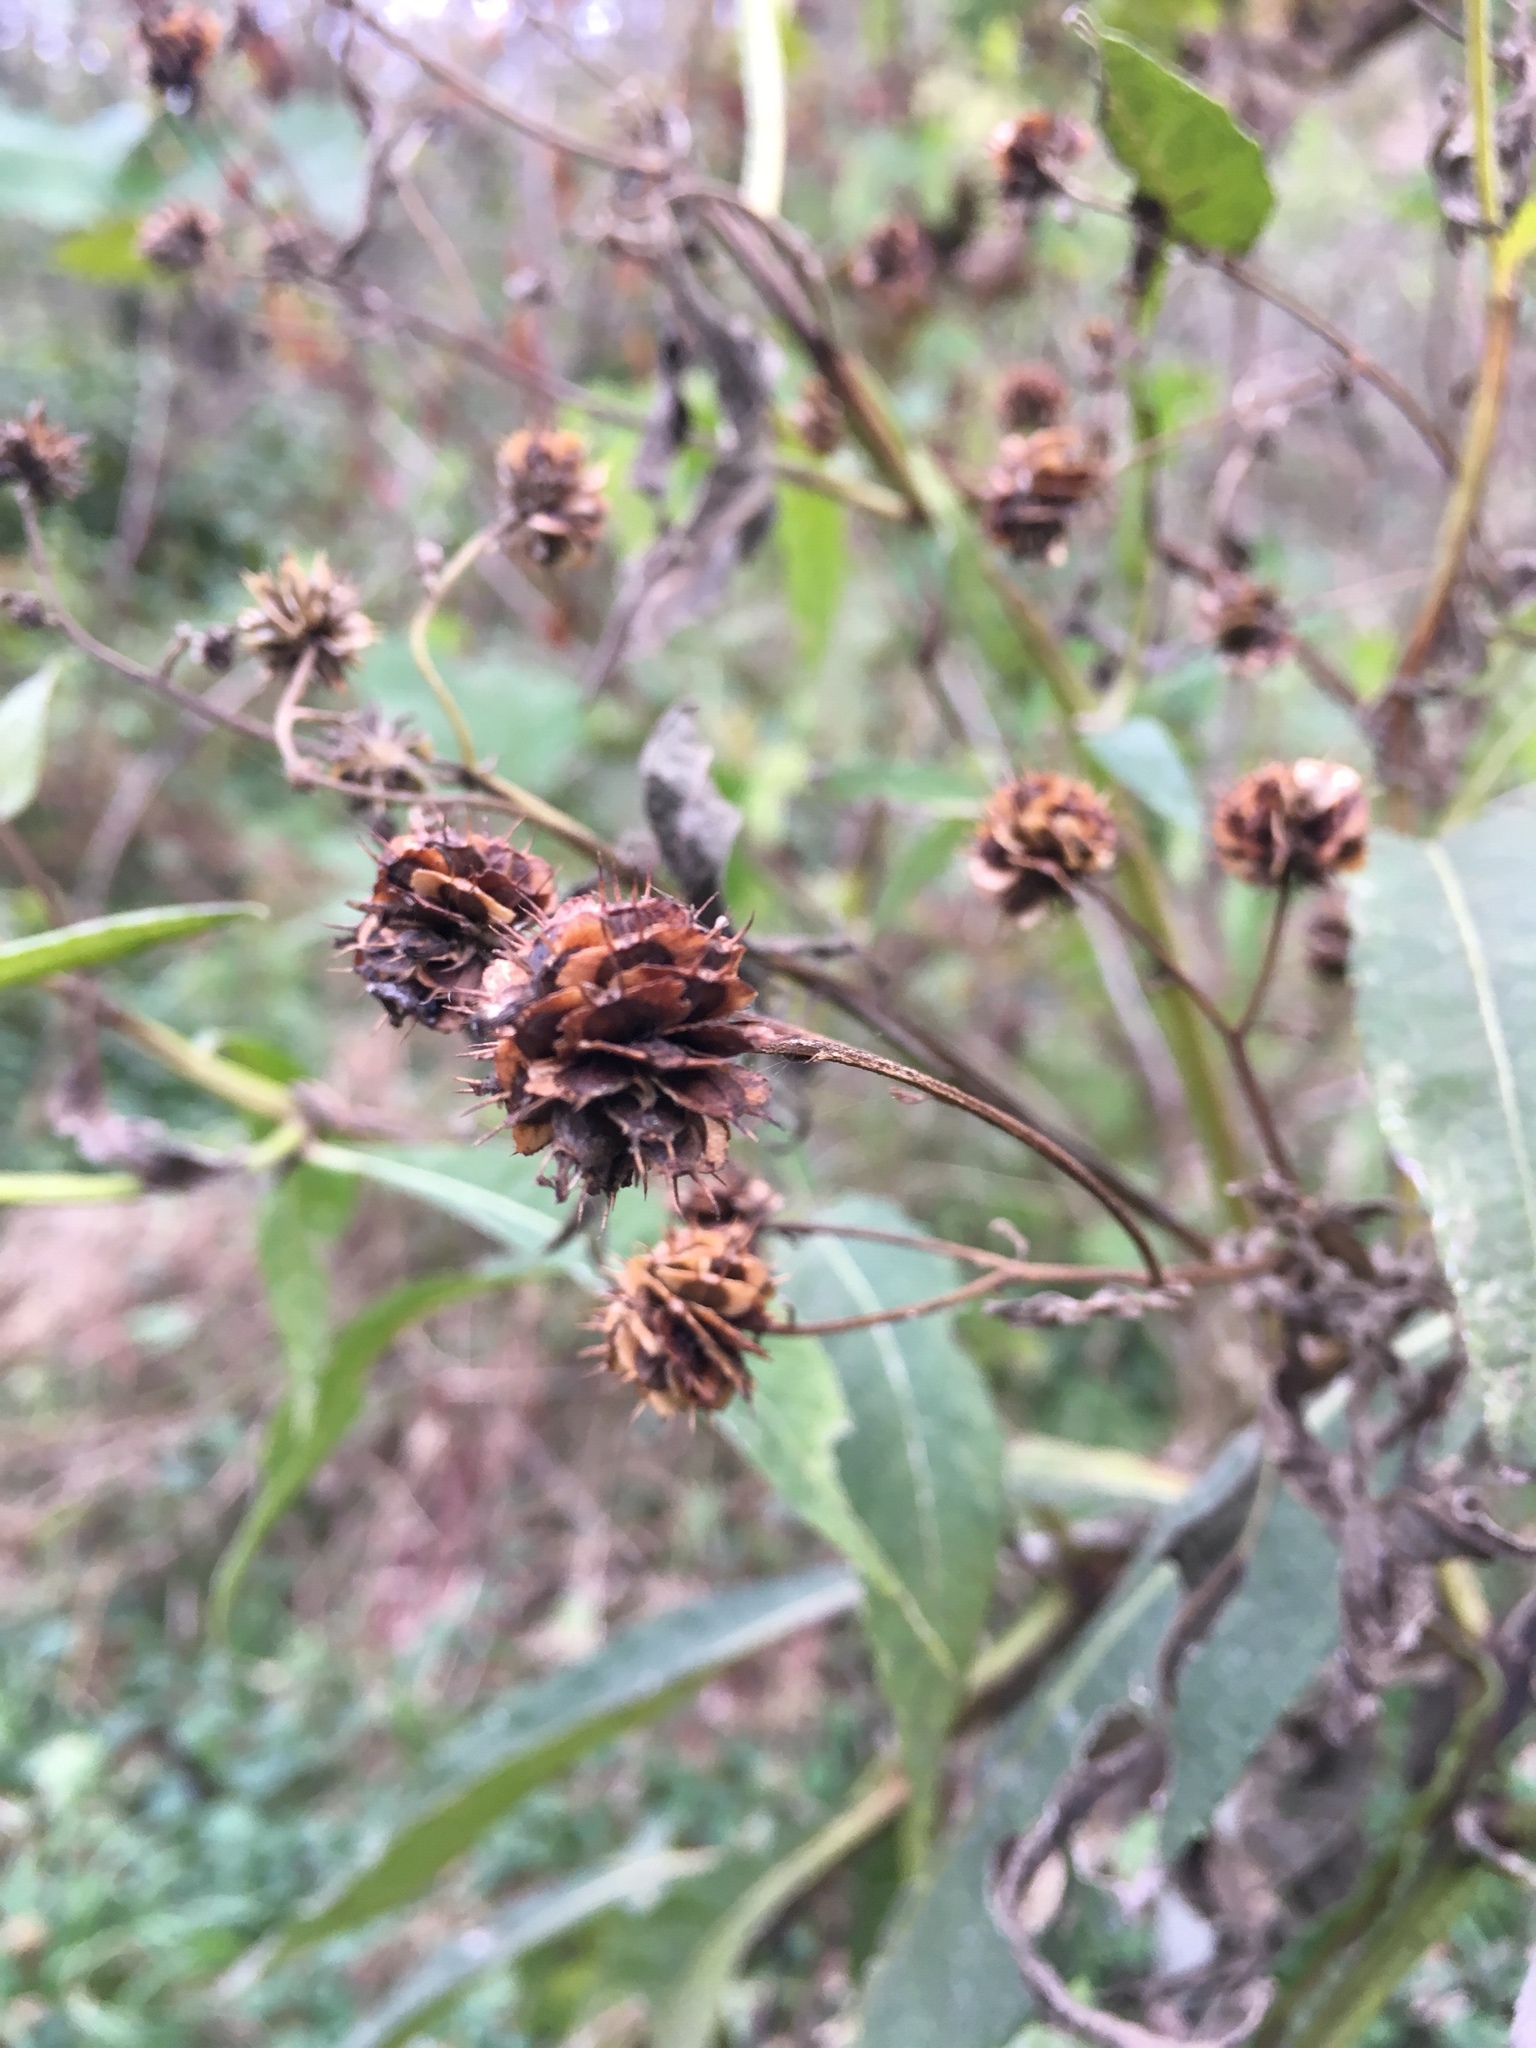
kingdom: Plantae
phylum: Tracheophyta
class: Magnoliopsida
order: Asterales
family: Asteraceae
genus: Verbesina
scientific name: Verbesina alternifolia
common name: Wingstem
